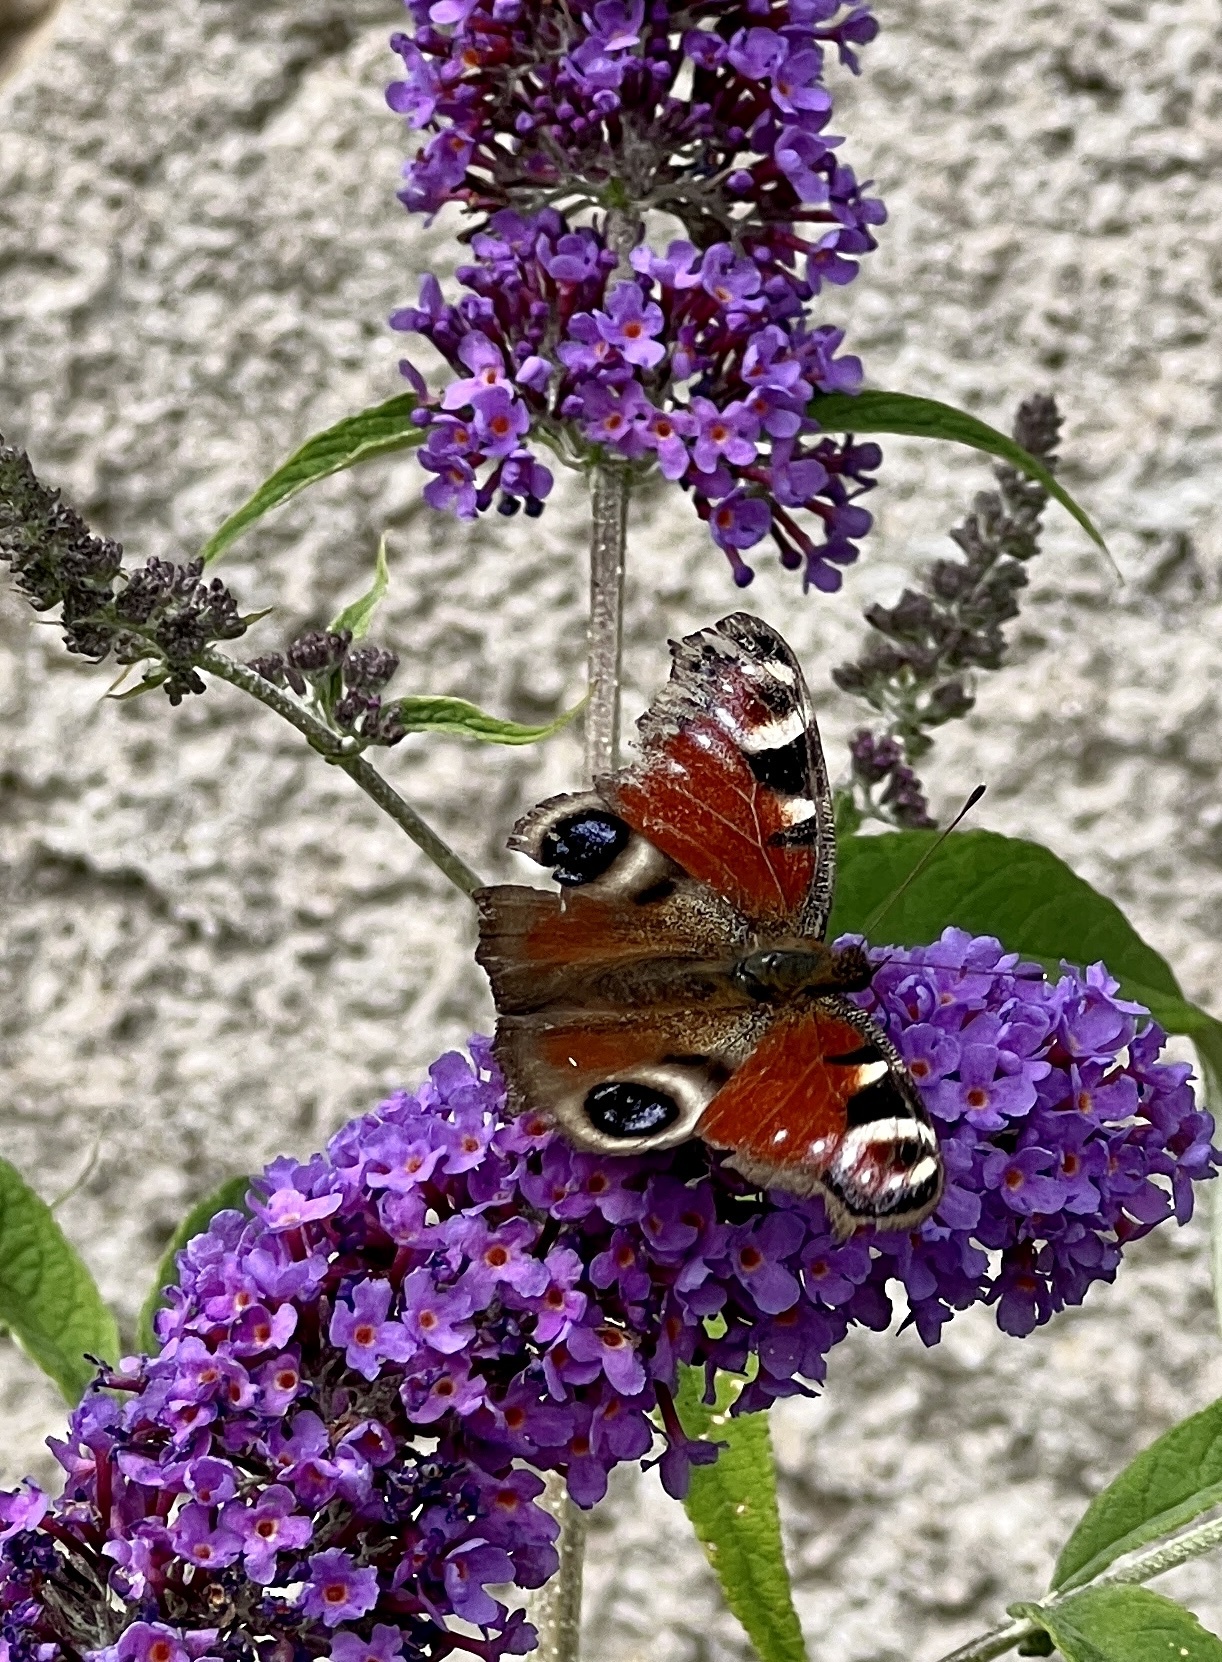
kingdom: Animalia
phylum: Arthropoda
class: Insecta
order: Lepidoptera
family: Nymphalidae
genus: Aglais
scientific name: Aglais io
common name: Peacock
